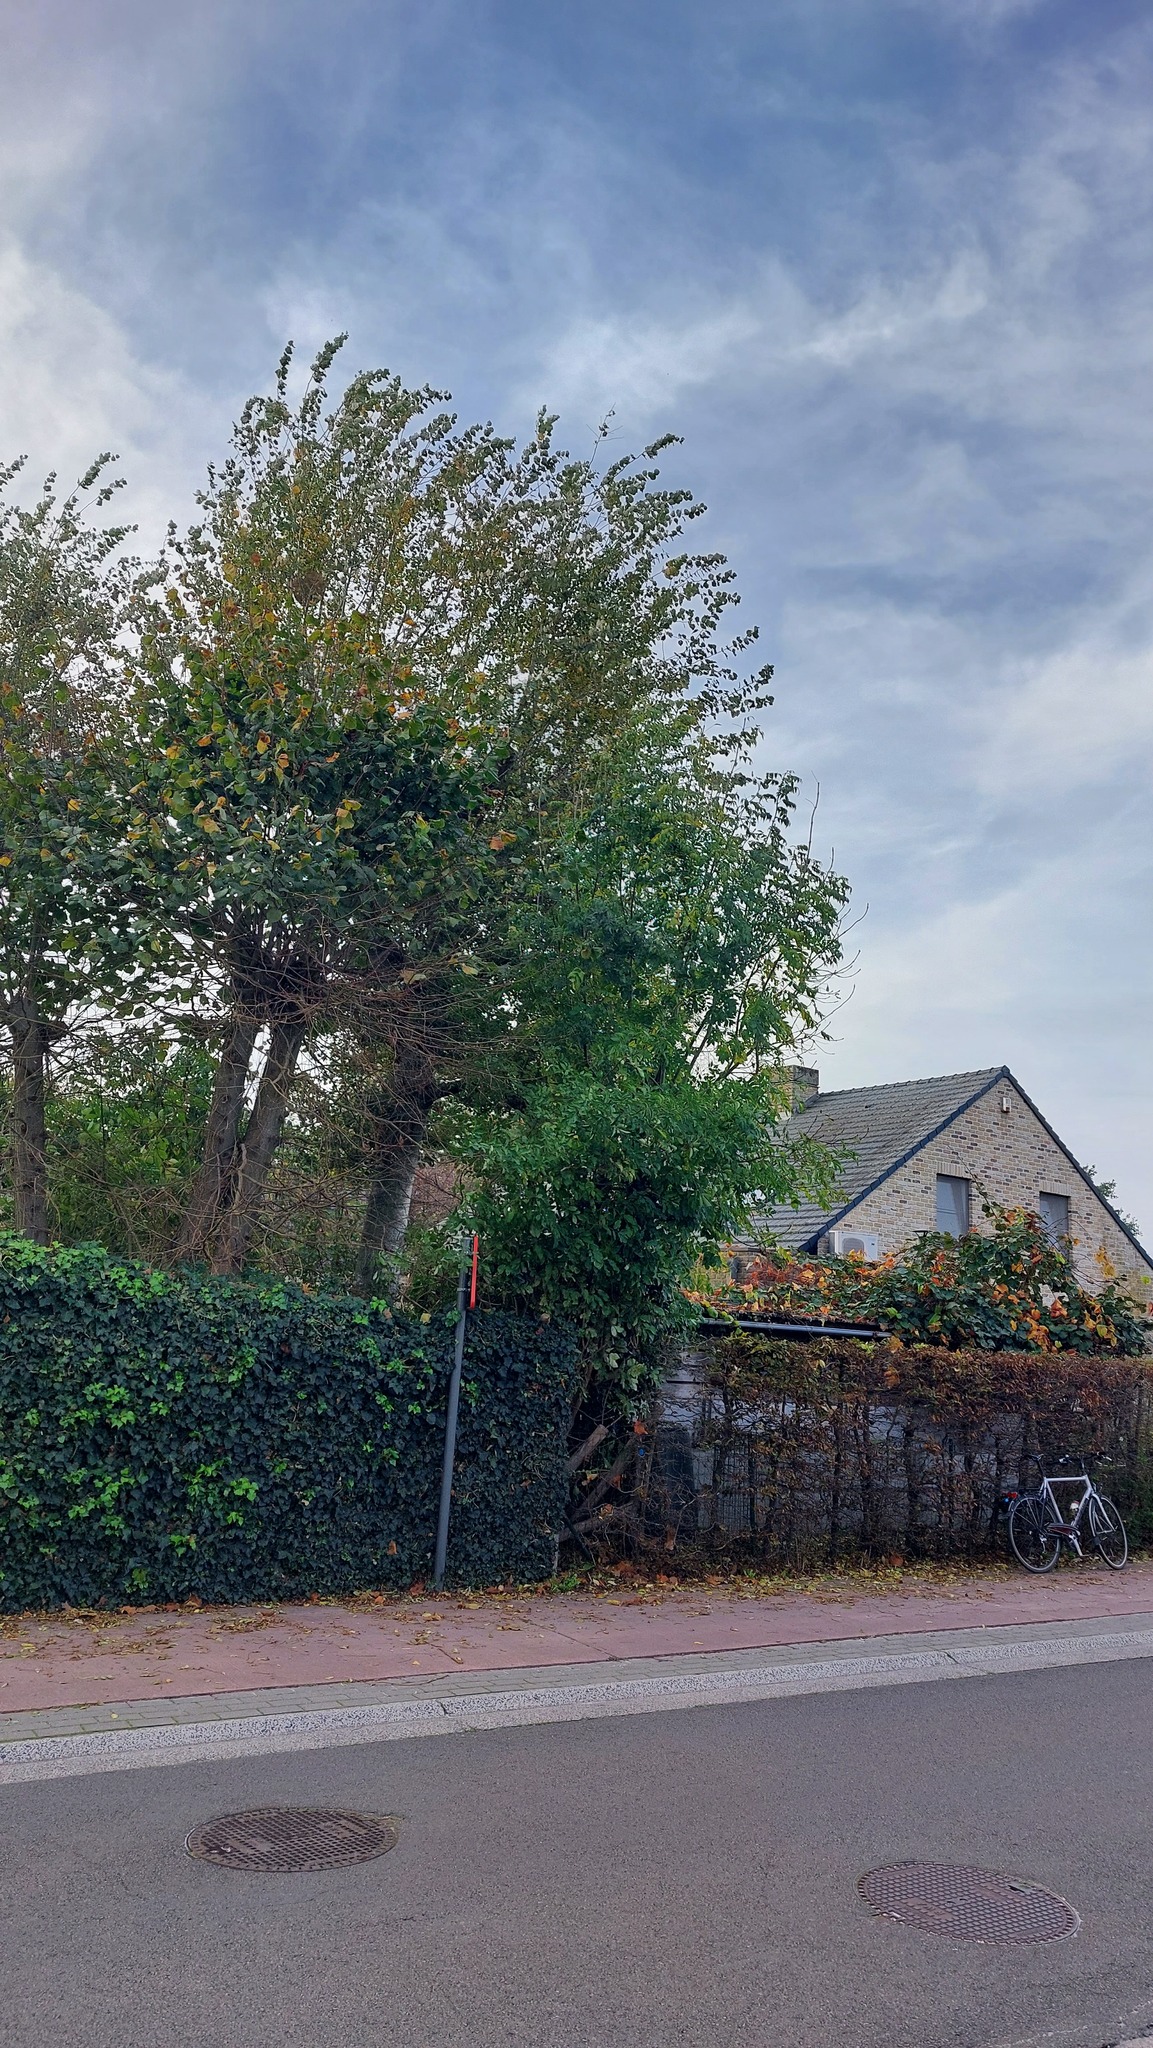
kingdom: Animalia
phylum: Arthropoda
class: Insecta
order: Hymenoptera
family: Vespidae
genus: Vespa
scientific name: Vespa velutina
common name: Asian hornet
